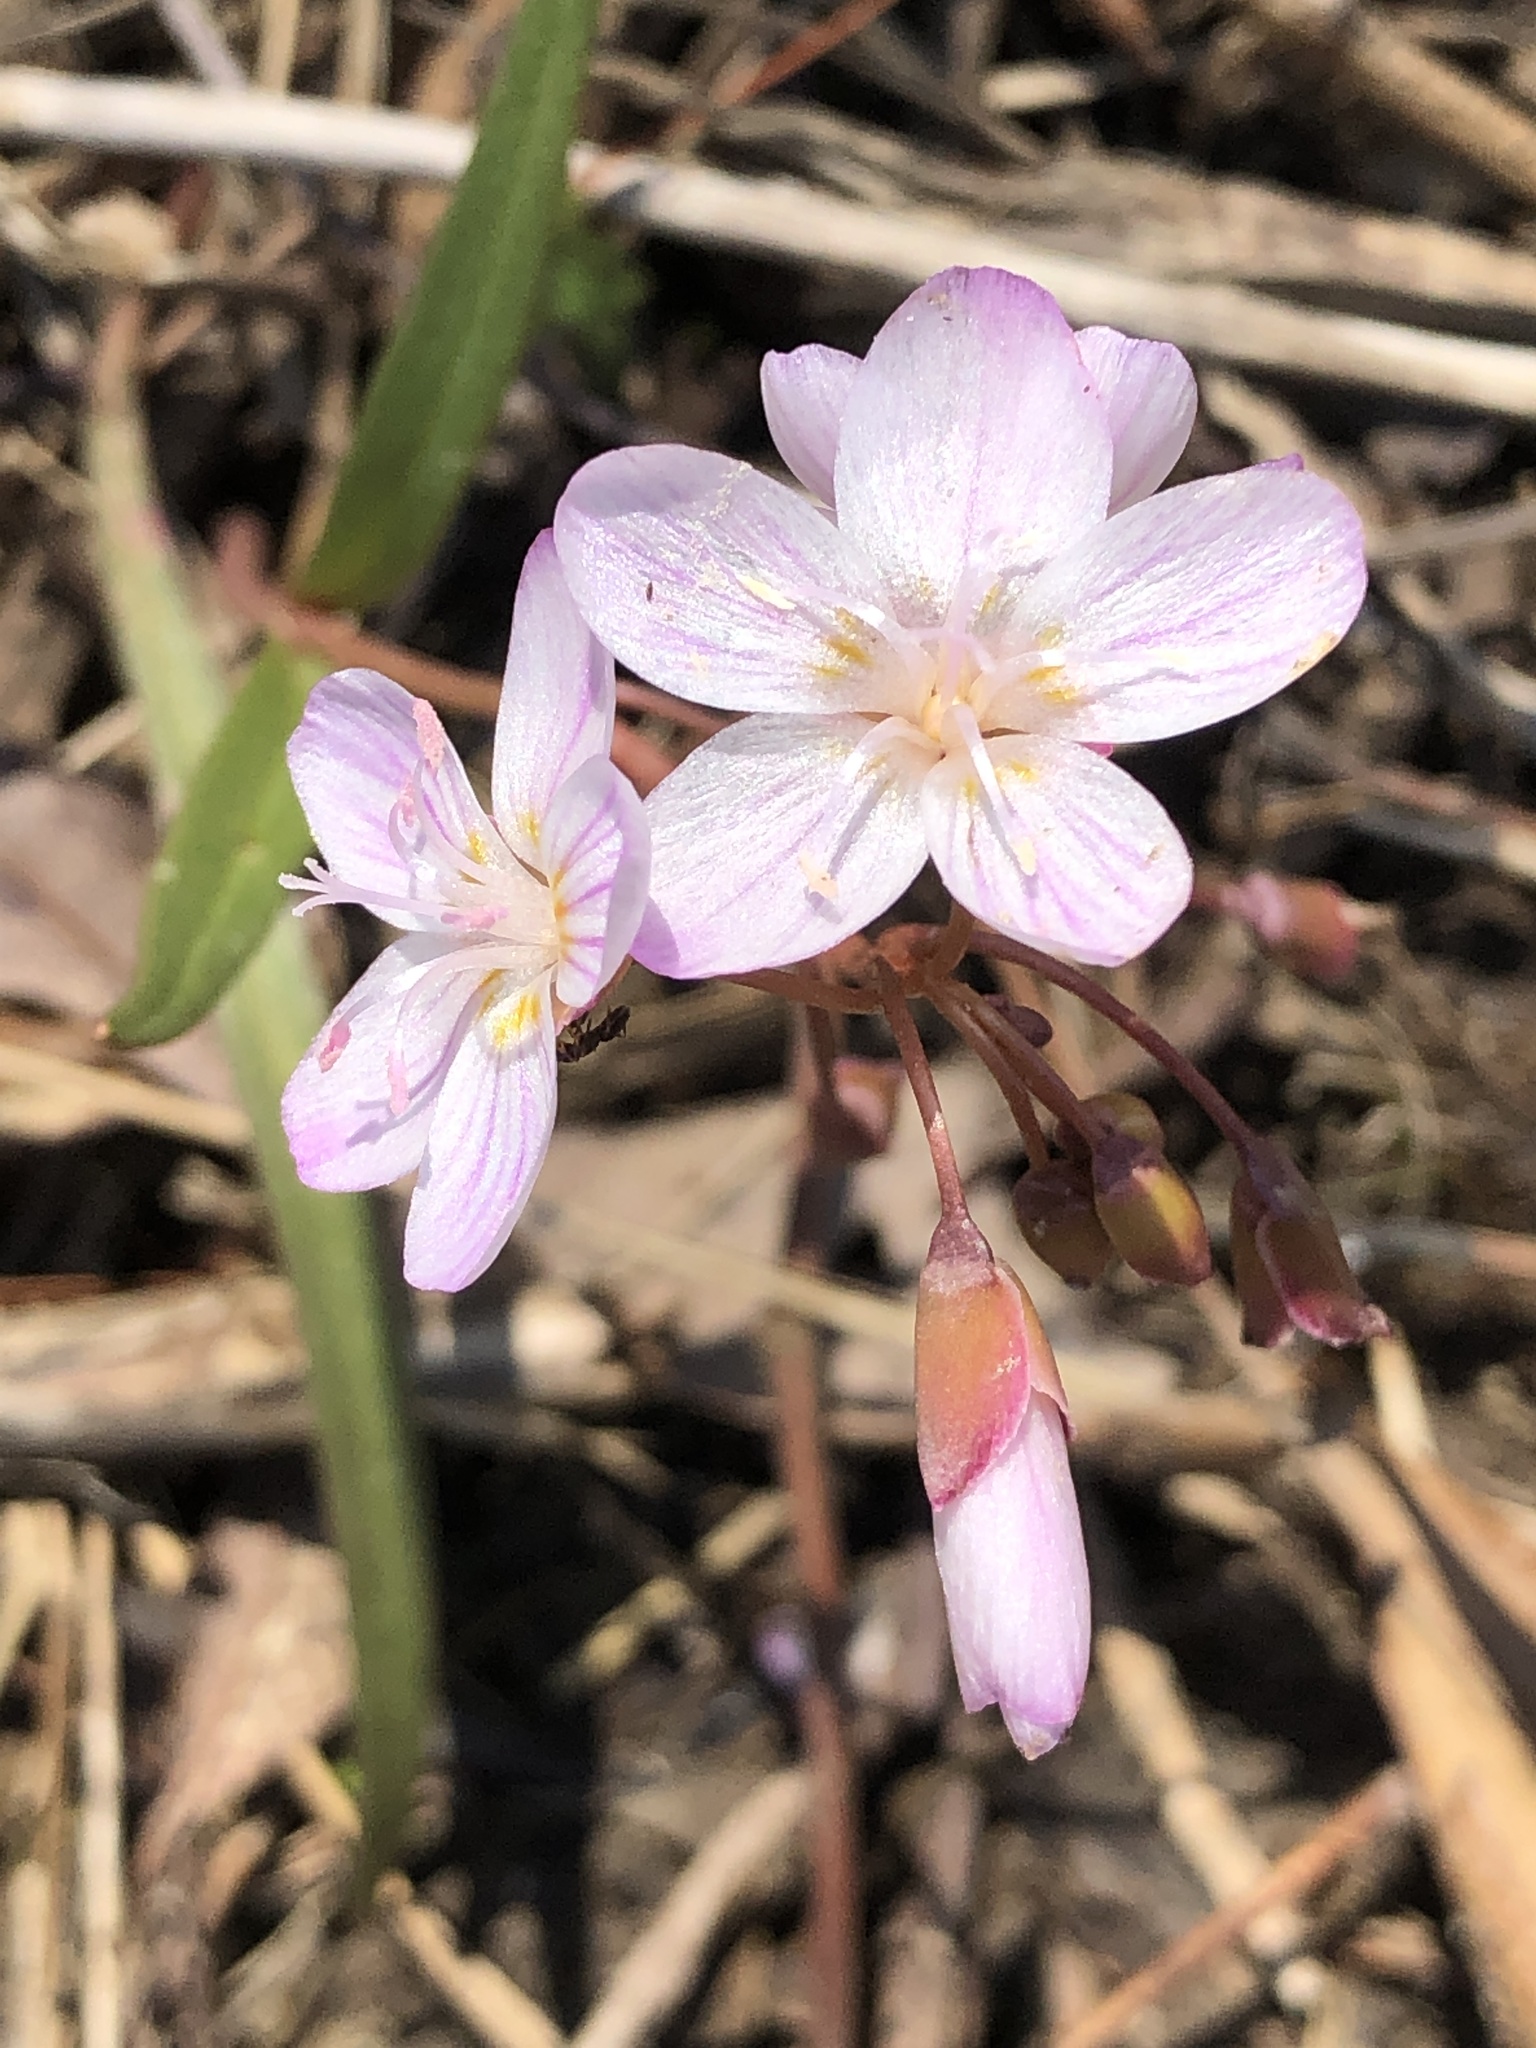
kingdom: Plantae
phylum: Tracheophyta
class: Magnoliopsida
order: Caryophyllales
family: Montiaceae
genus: Claytonia
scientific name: Claytonia virginica
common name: Virginia springbeauty
